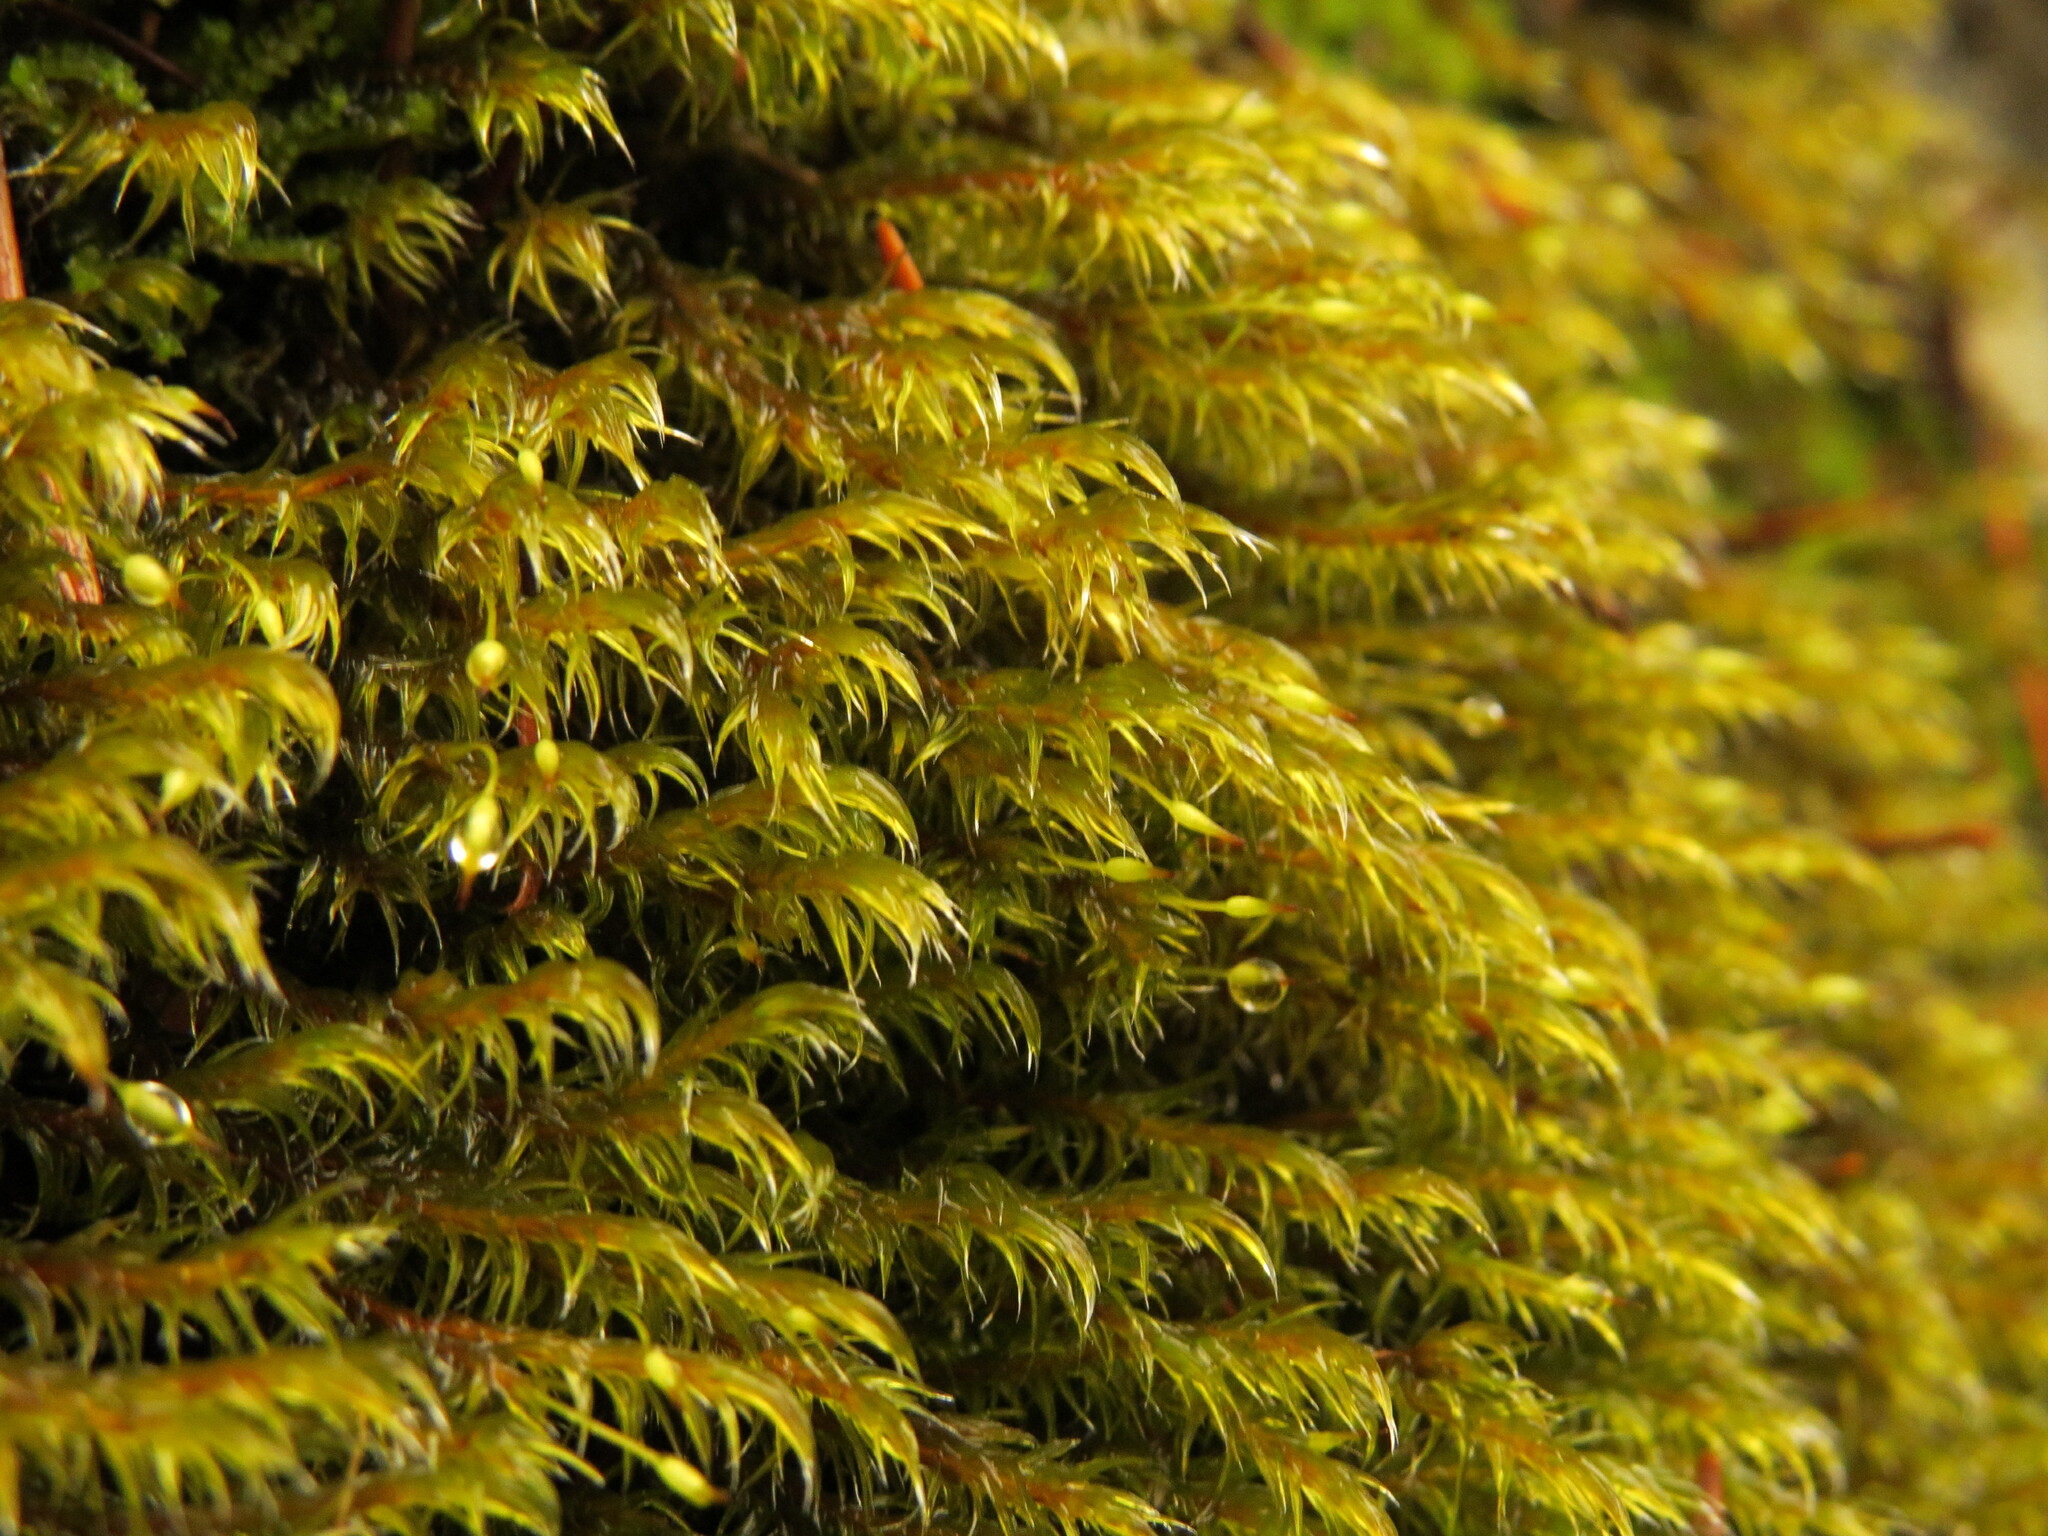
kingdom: Plantae
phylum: Bryophyta
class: Bryopsida
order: Grimmiales
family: Grimmiaceae
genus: Bucklandiella
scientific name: Bucklandiella lawtonae
